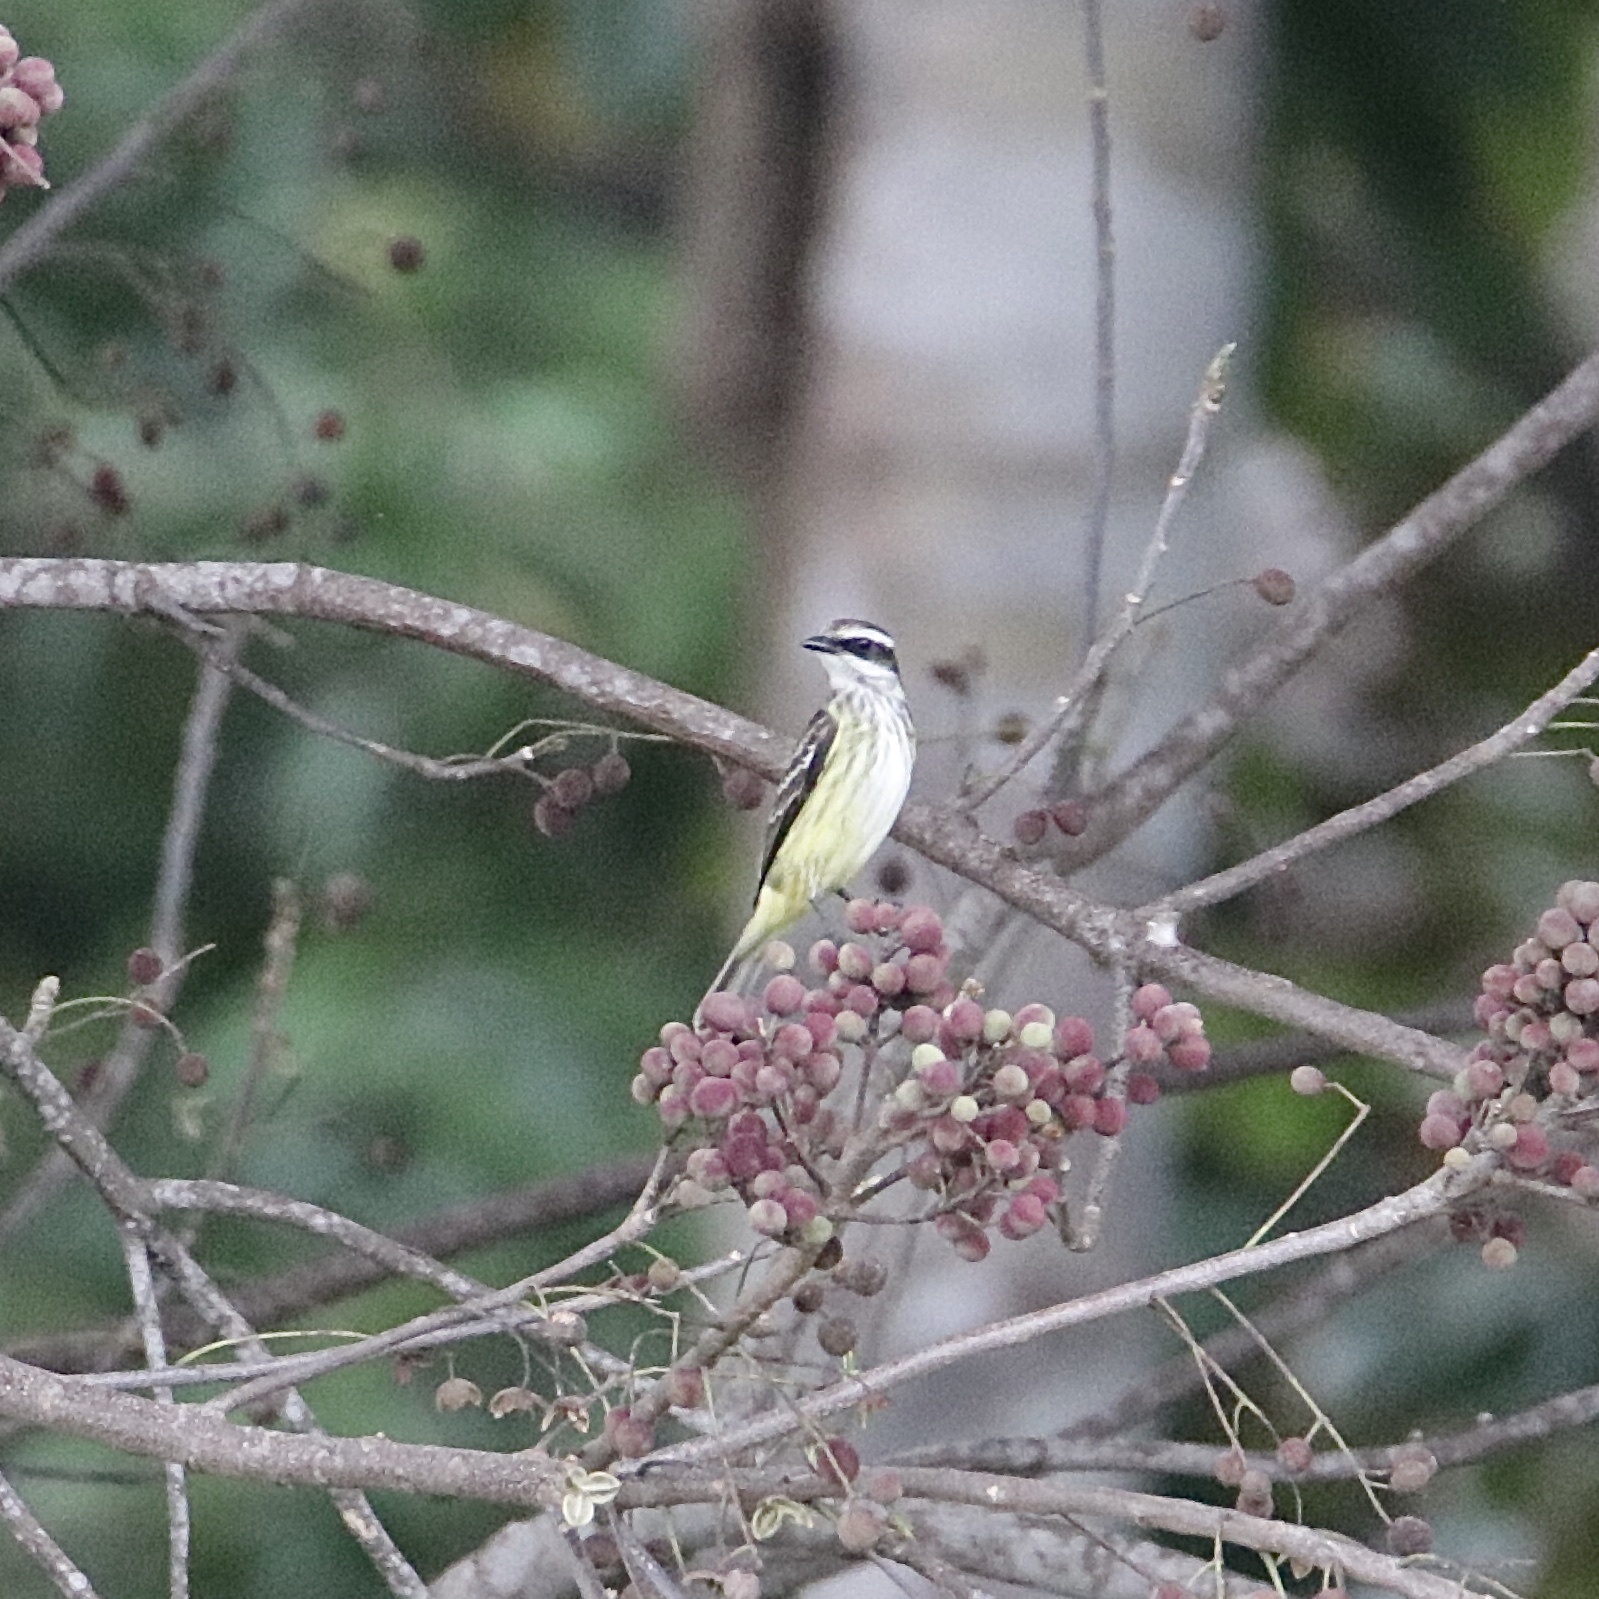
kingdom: Animalia
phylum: Chordata
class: Aves
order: Passeriformes
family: Tyrannidae
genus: Legatus
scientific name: Legatus leucophaius
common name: Piratic flycatcher
